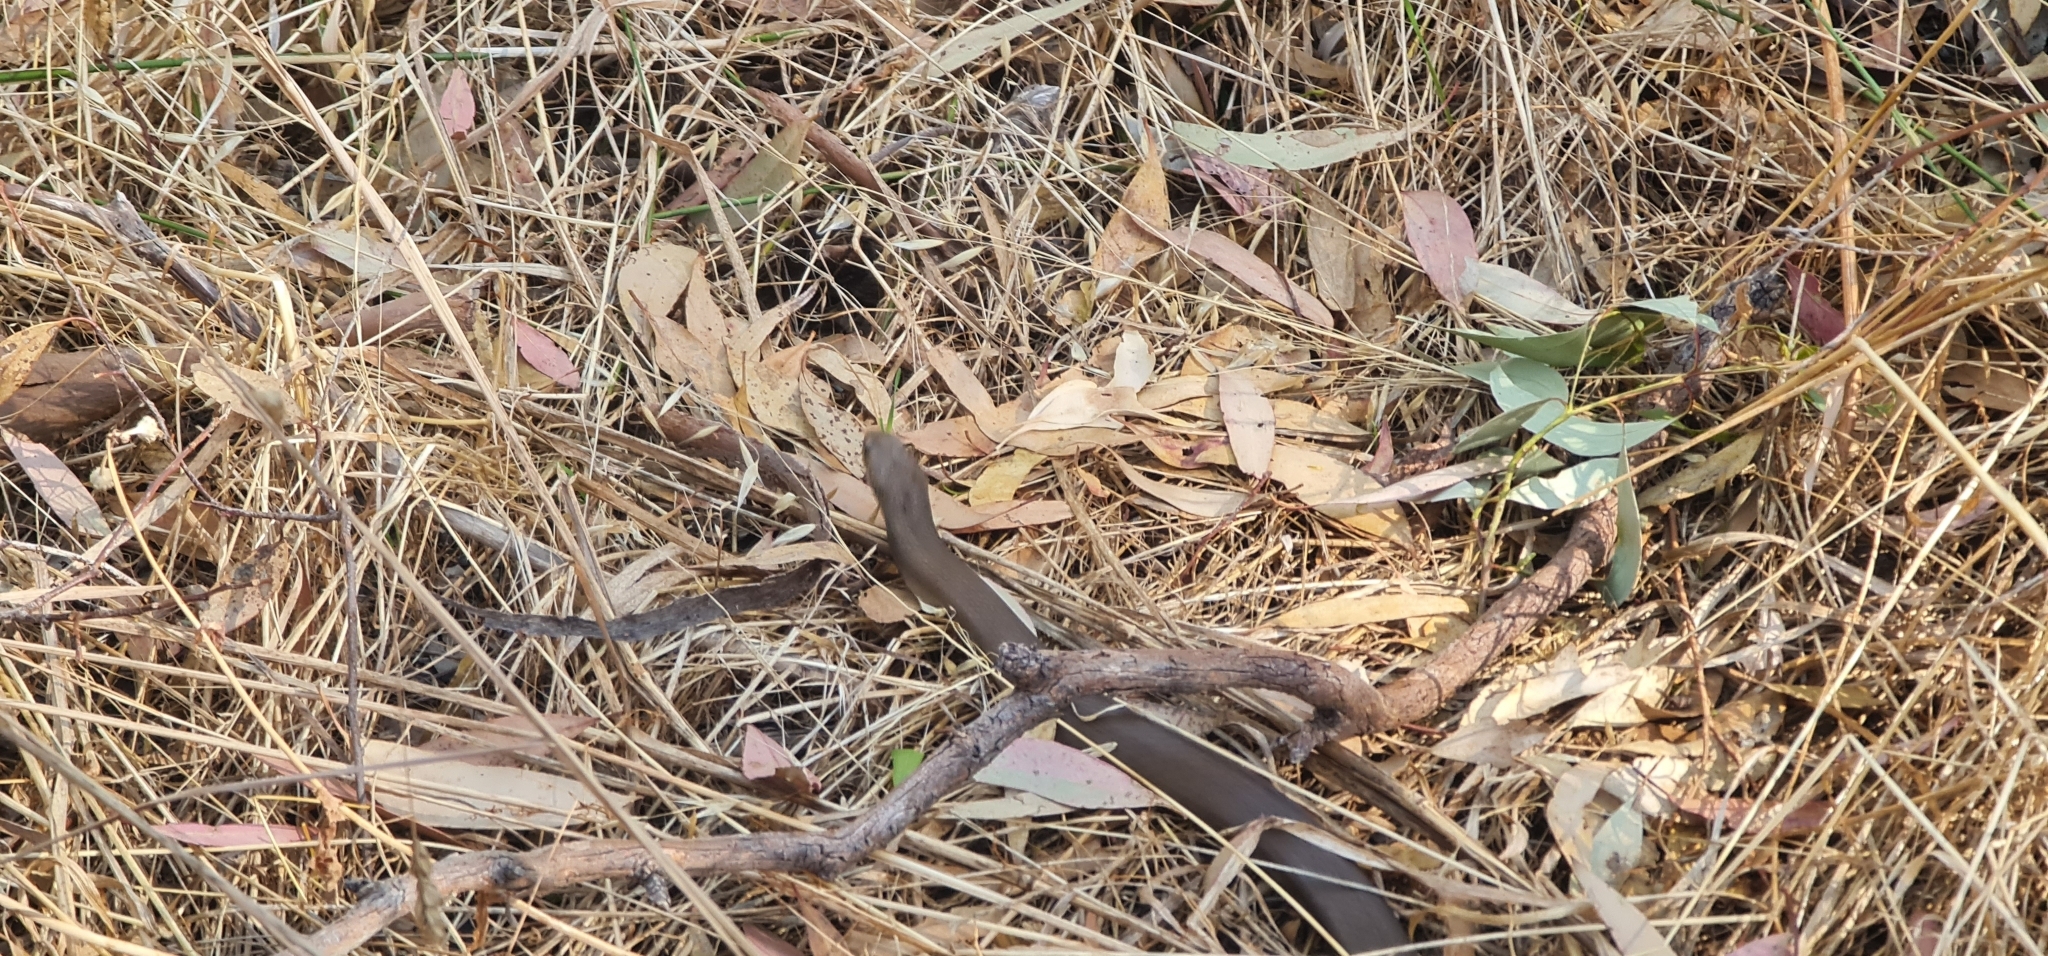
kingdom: Animalia
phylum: Chordata
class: Squamata
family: Elapidae
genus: Pseudonaja
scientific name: Pseudonaja textilis
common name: Eastern brown snake
